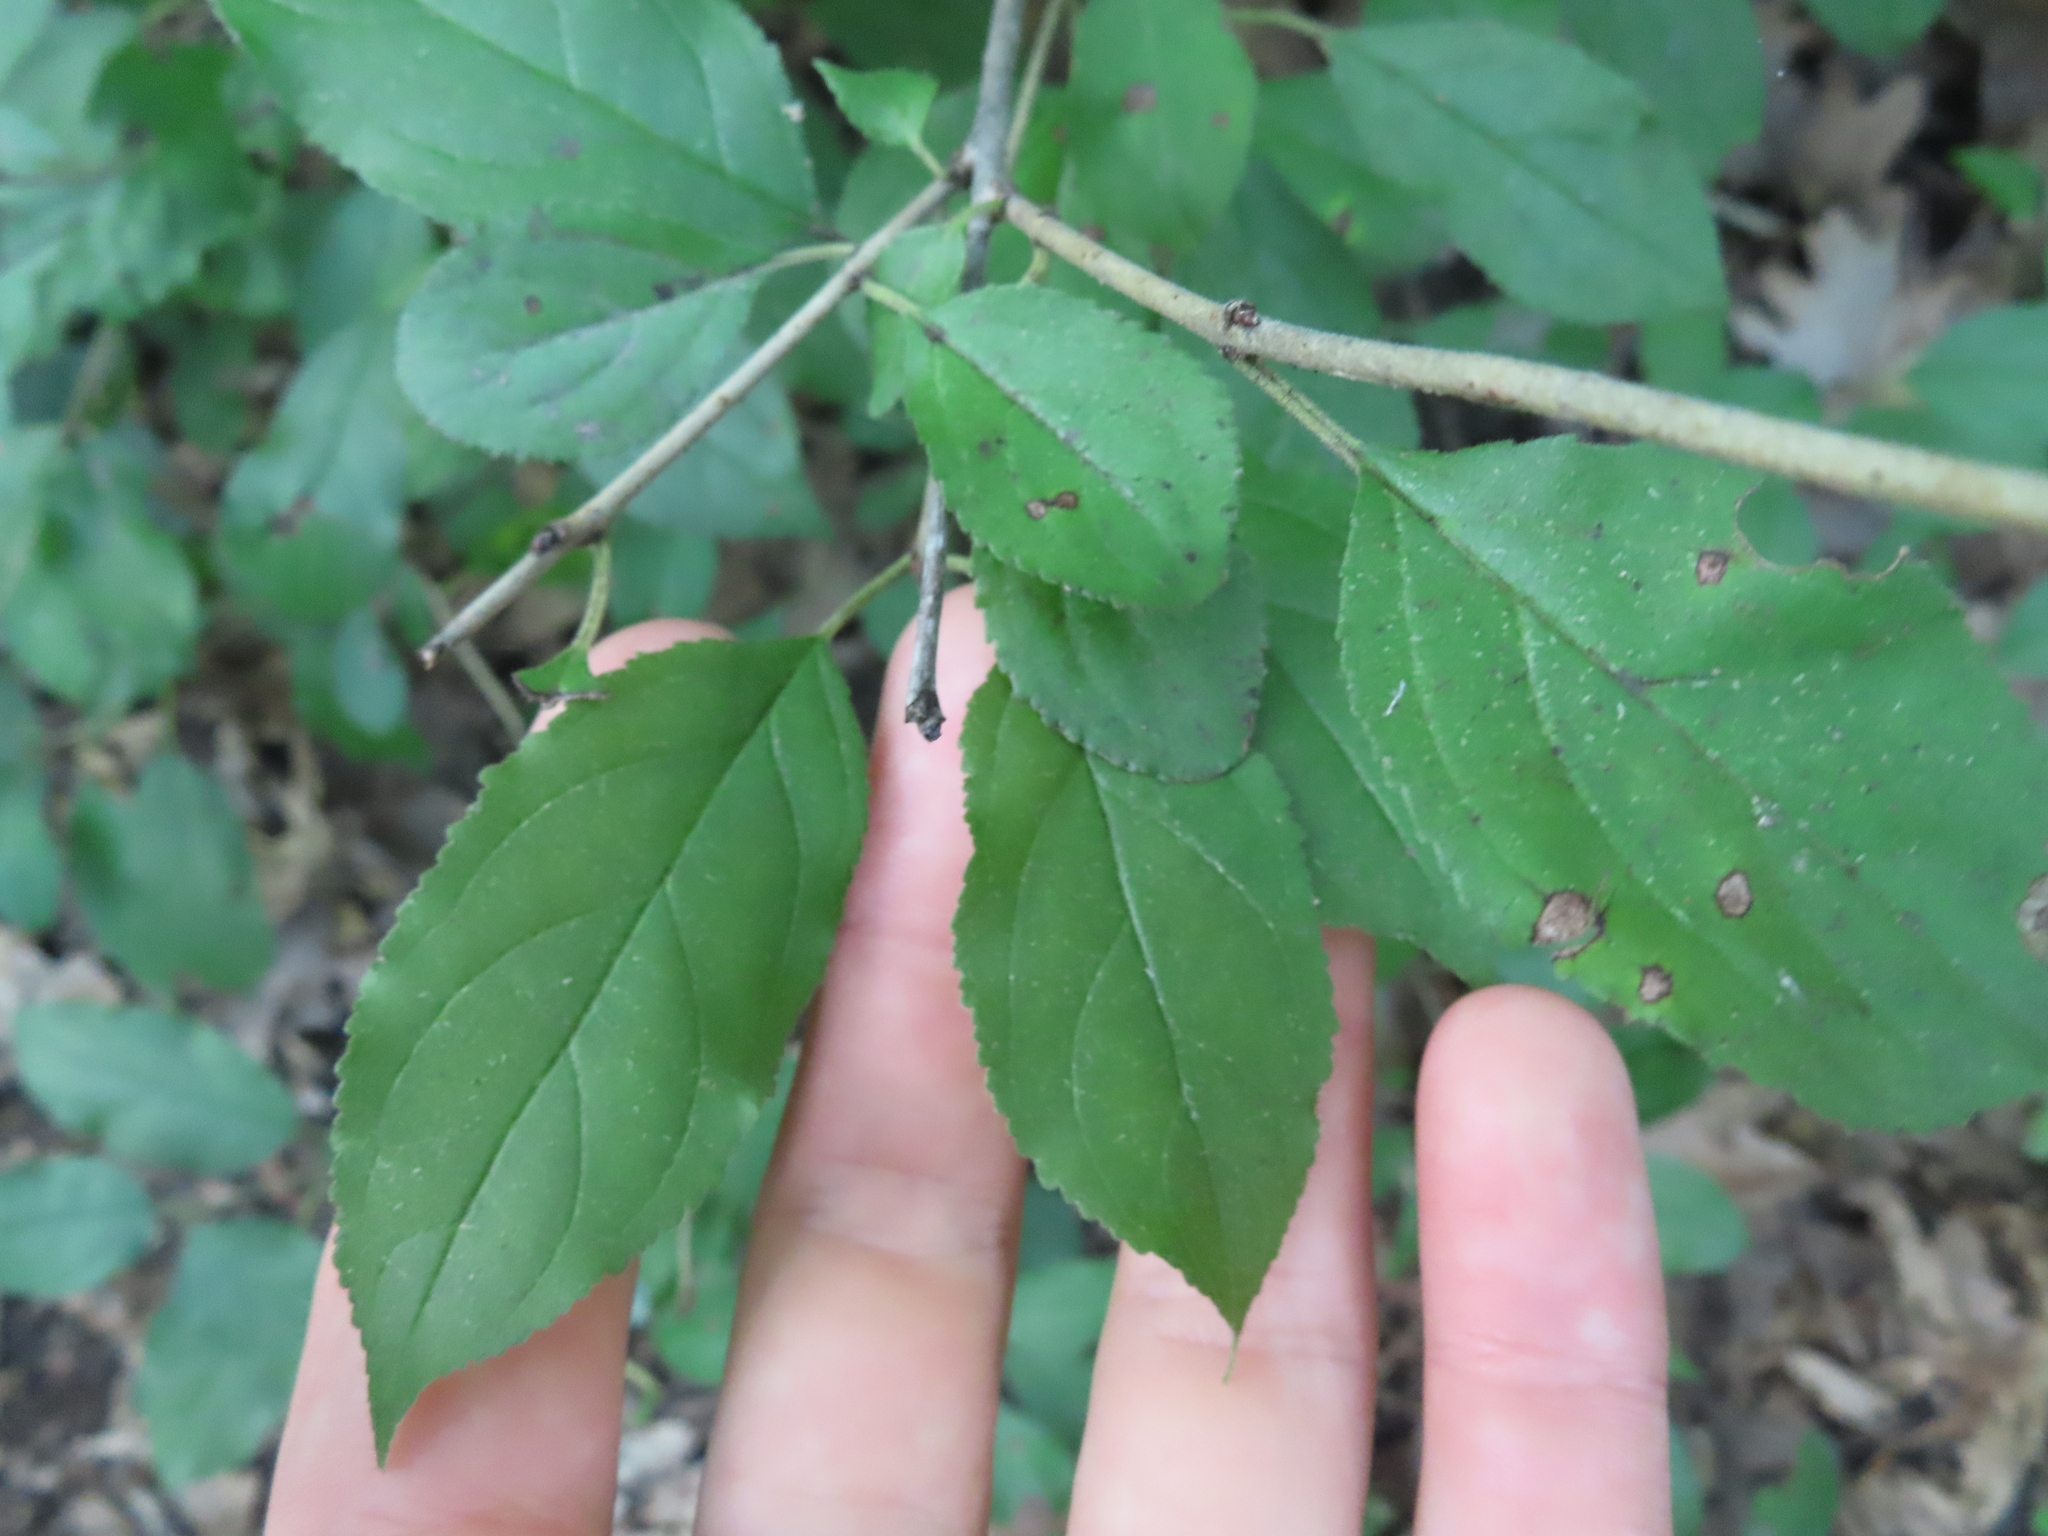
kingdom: Plantae
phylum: Tracheophyta
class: Magnoliopsida
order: Rosales
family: Rhamnaceae
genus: Rhamnus
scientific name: Rhamnus cathartica
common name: Common buckthorn
